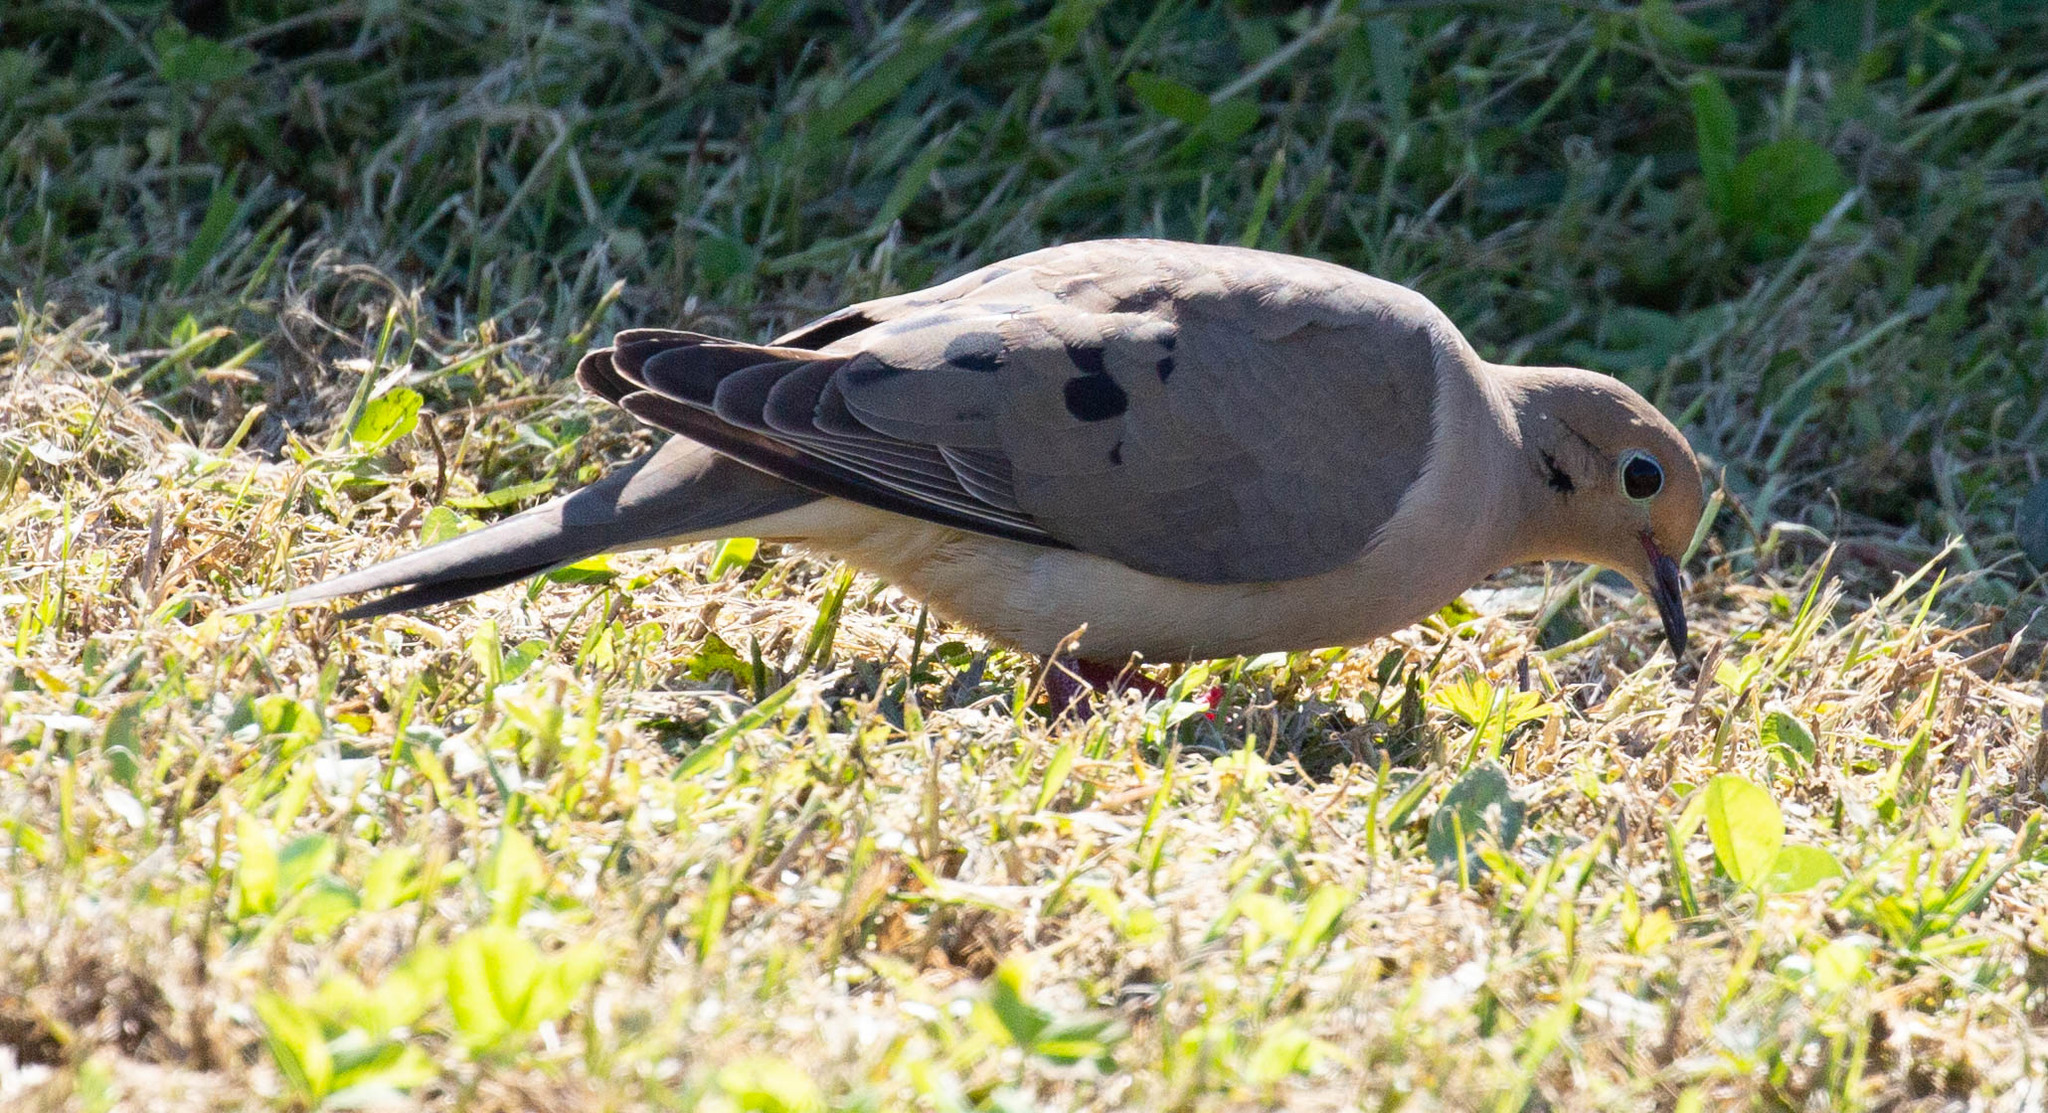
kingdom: Animalia
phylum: Chordata
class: Aves
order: Columbiformes
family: Columbidae
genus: Zenaida
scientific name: Zenaida macroura
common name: Mourning dove
